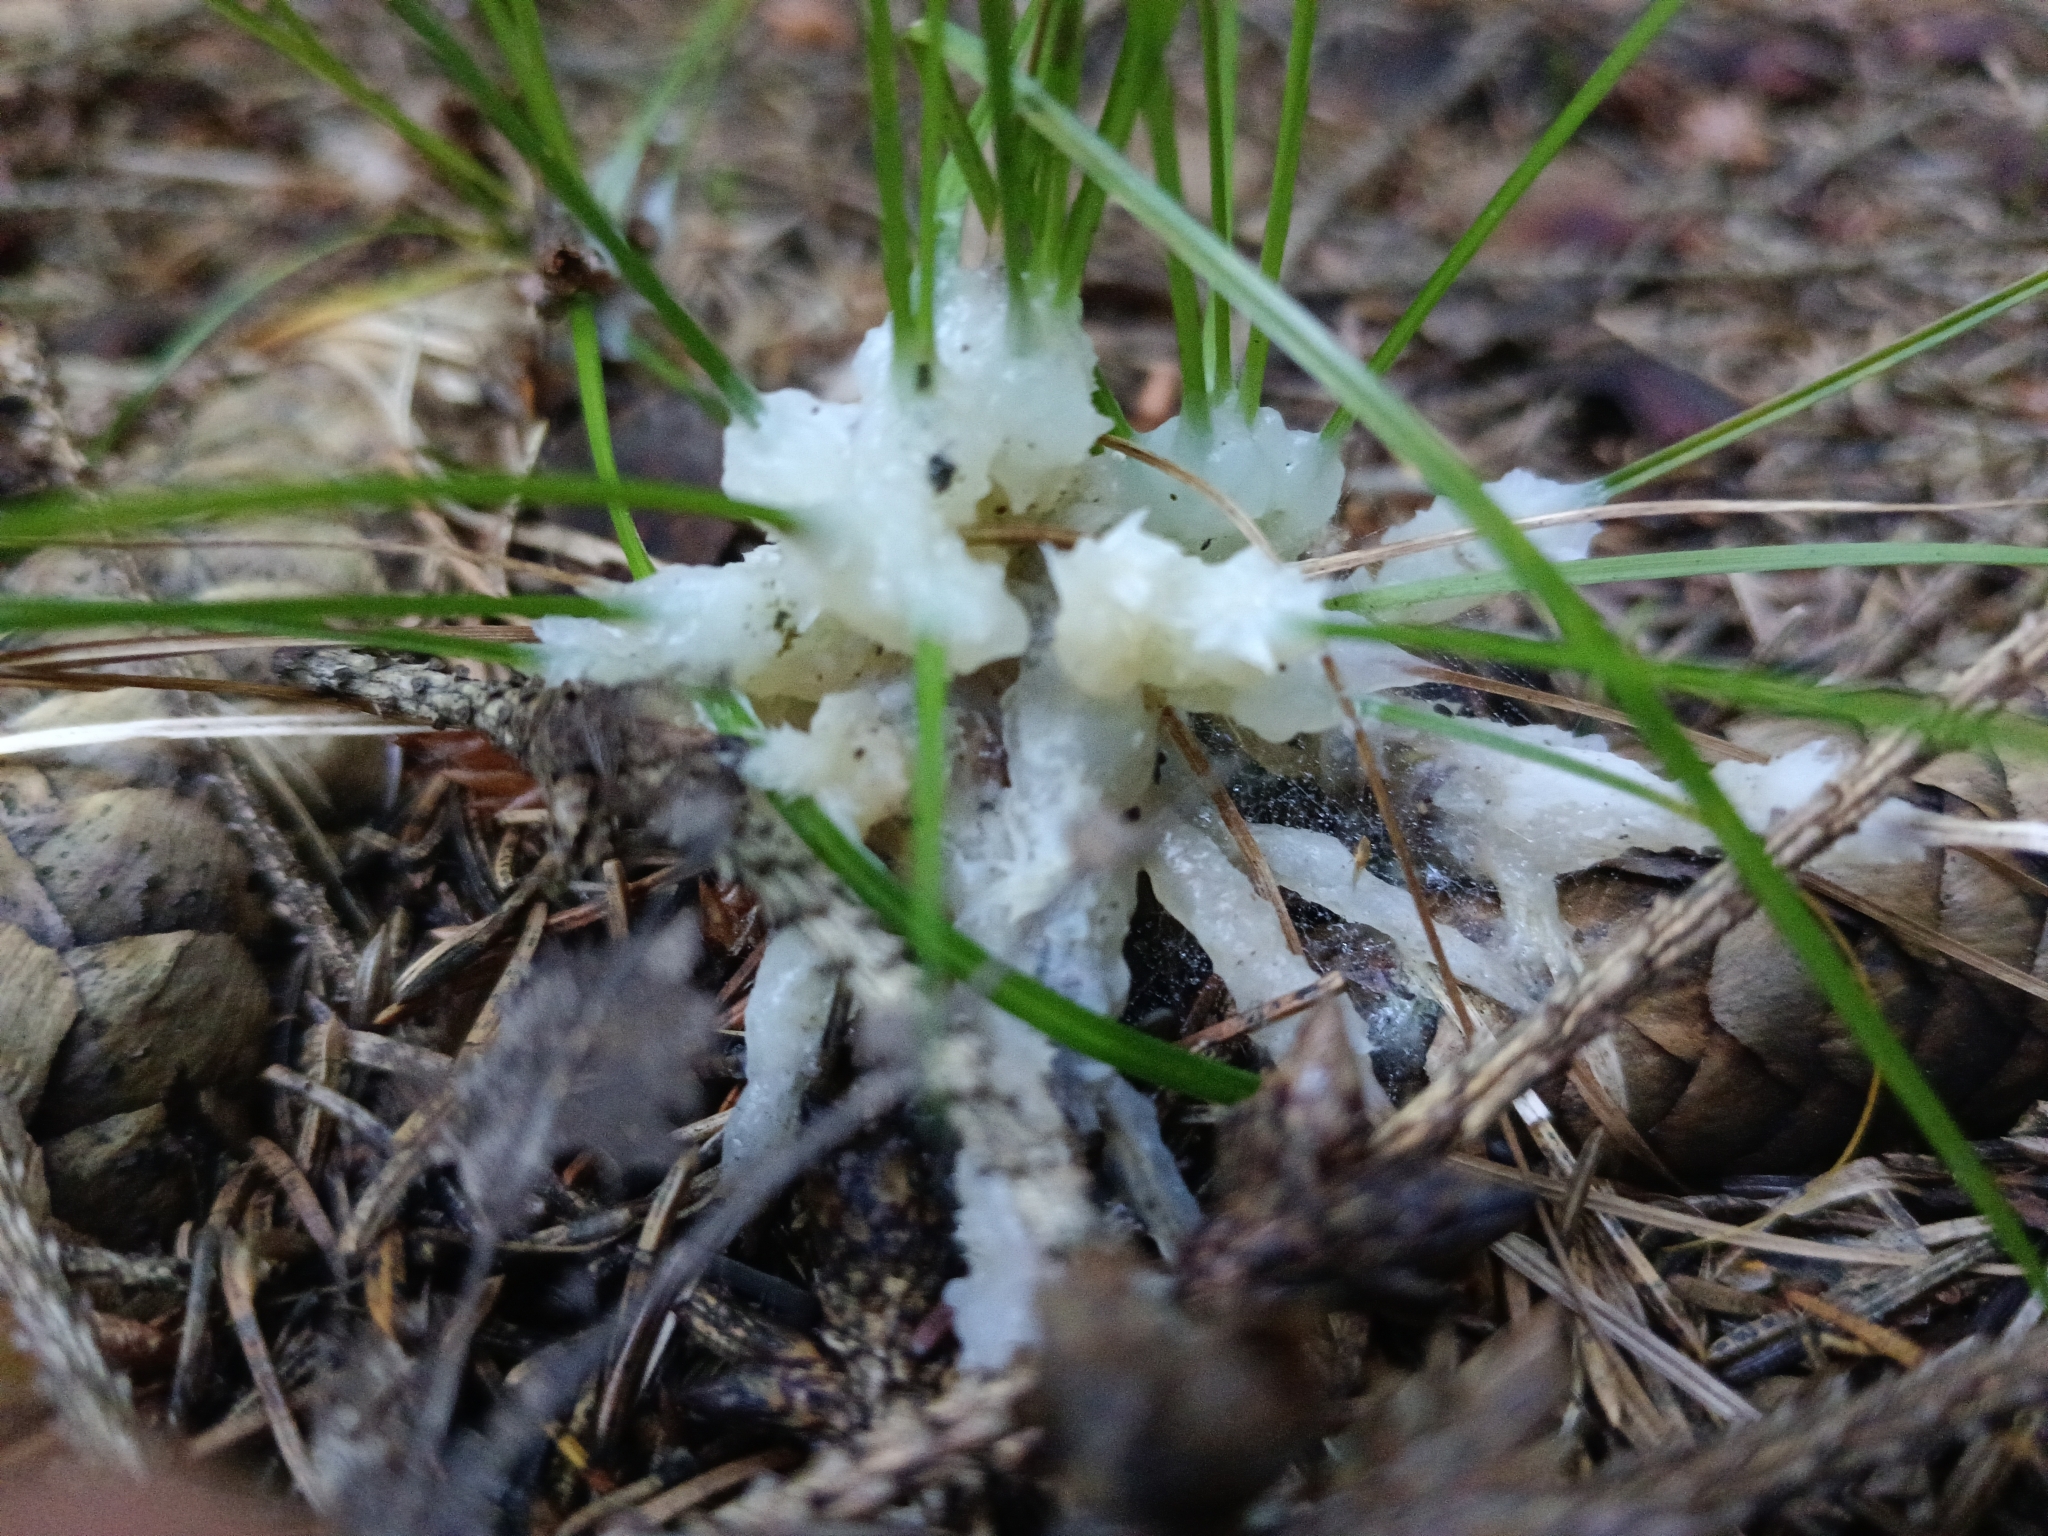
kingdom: Fungi
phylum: Basidiomycota
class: Agaricomycetes
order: Sebacinales
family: Sebacinaceae
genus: Sebacina
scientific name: Sebacina incrustans
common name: Enveloping crust
